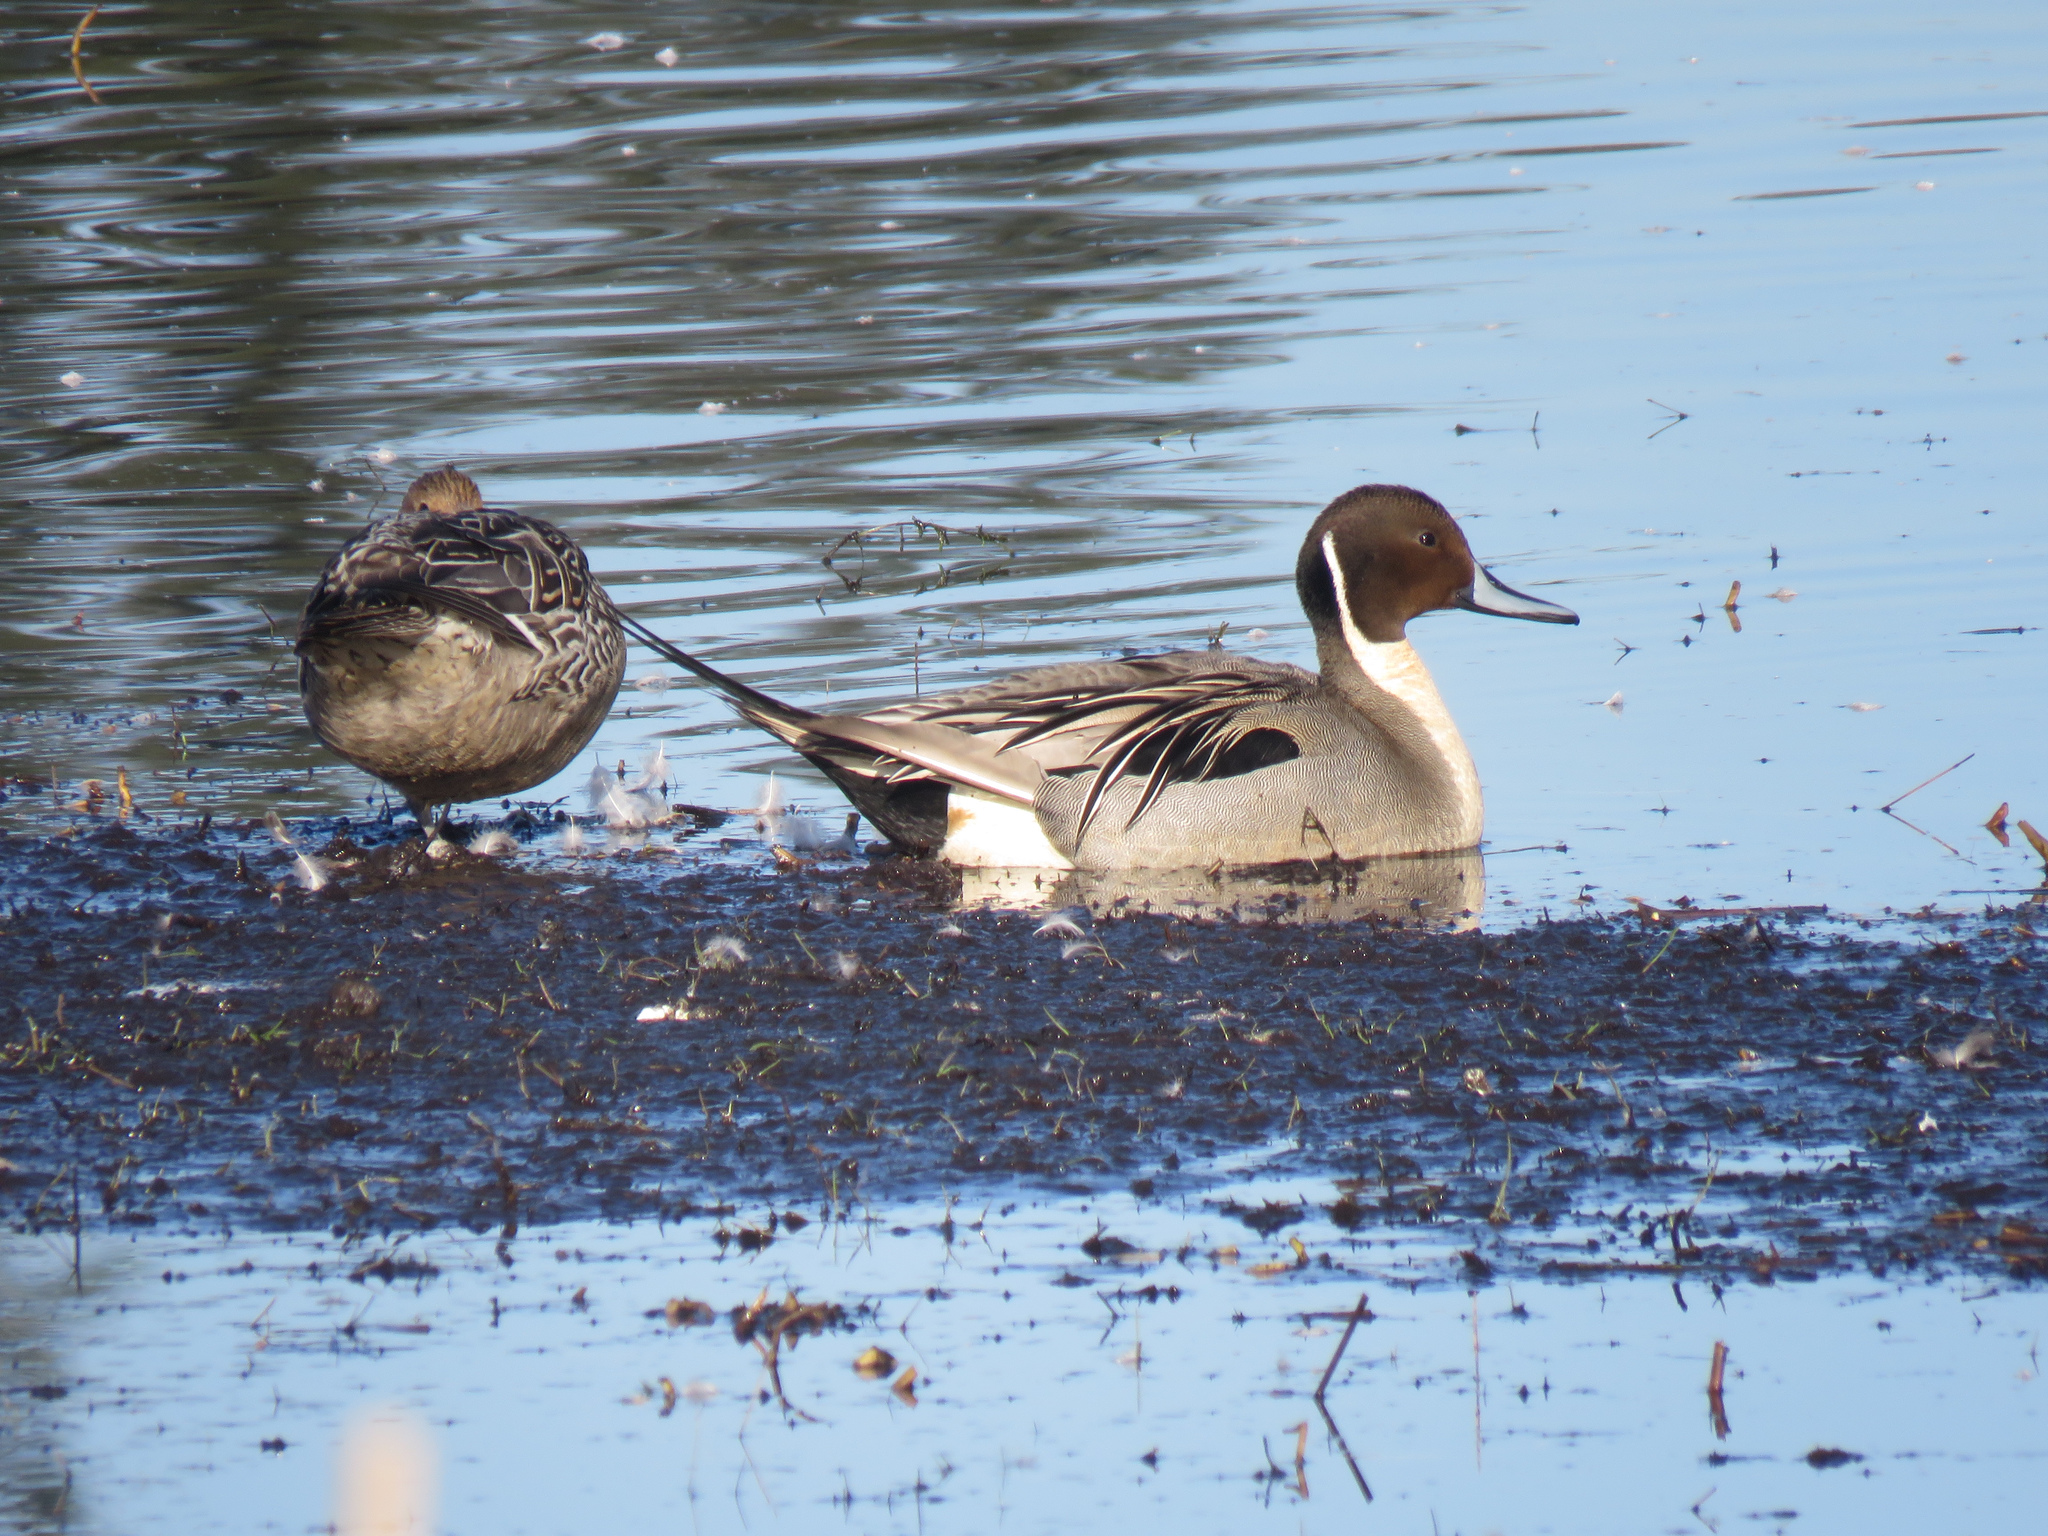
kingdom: Animalia
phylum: Chordata
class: Aves
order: Anseriformes
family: Anatidae
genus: Anas
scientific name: Anas acuta
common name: Northern pintail
